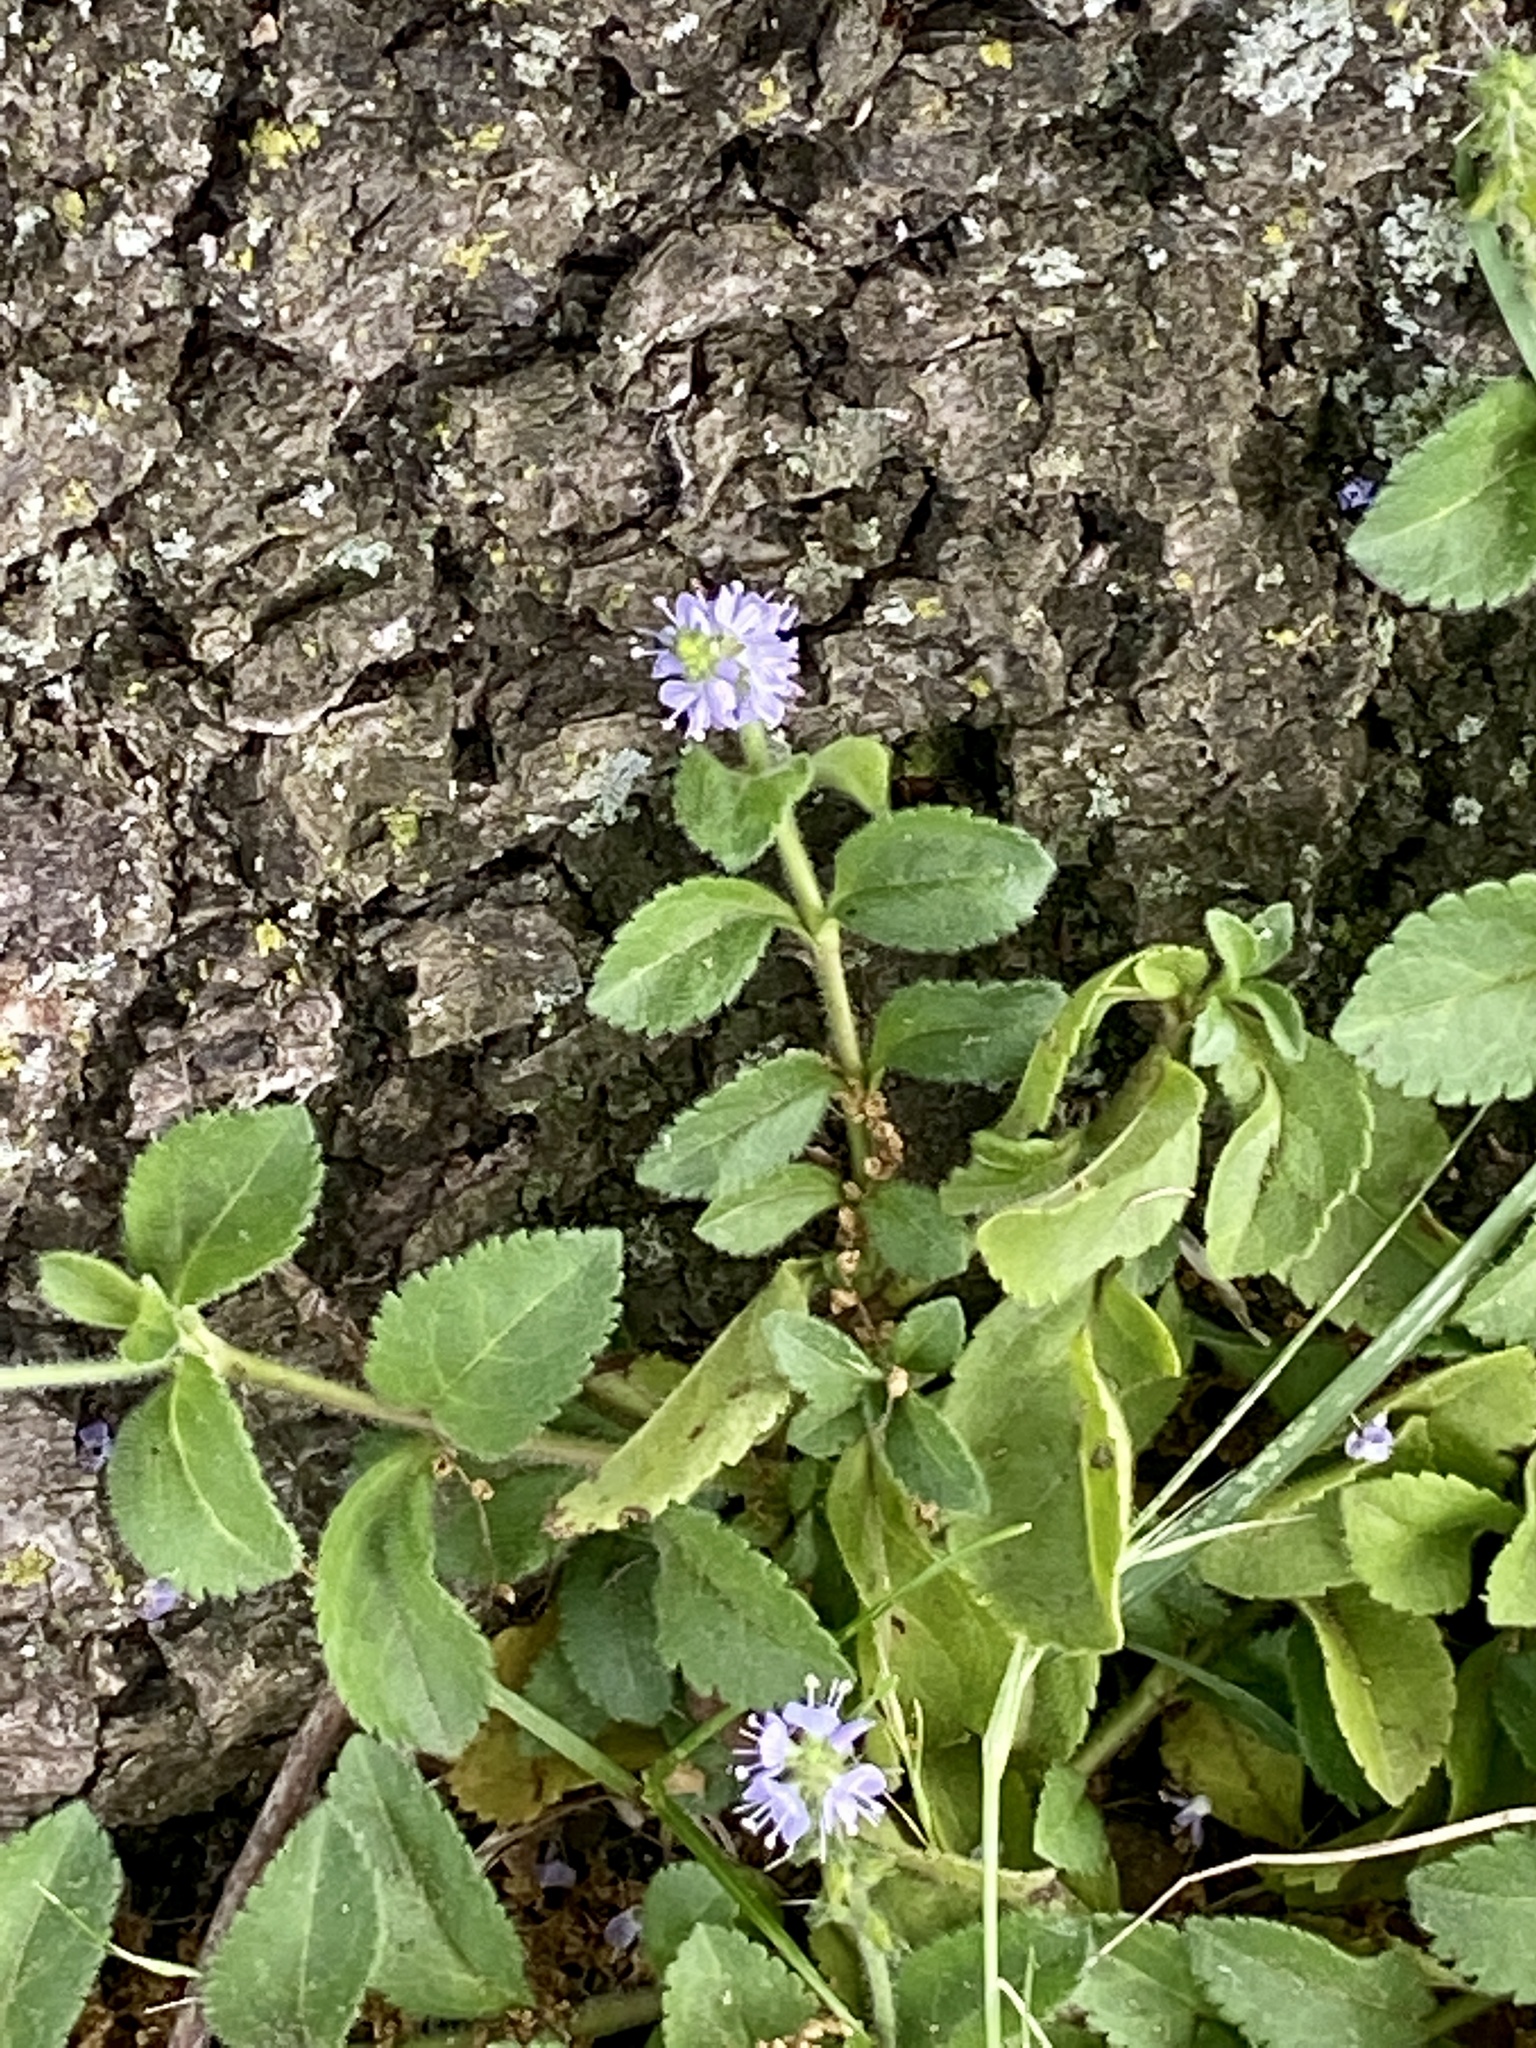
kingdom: Plantae
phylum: Tracheophyta
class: Magnoliopsida
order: Lamiales
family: Plantaginaceae
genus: Veronica
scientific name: Veronica officinalis
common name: Common speedwell
